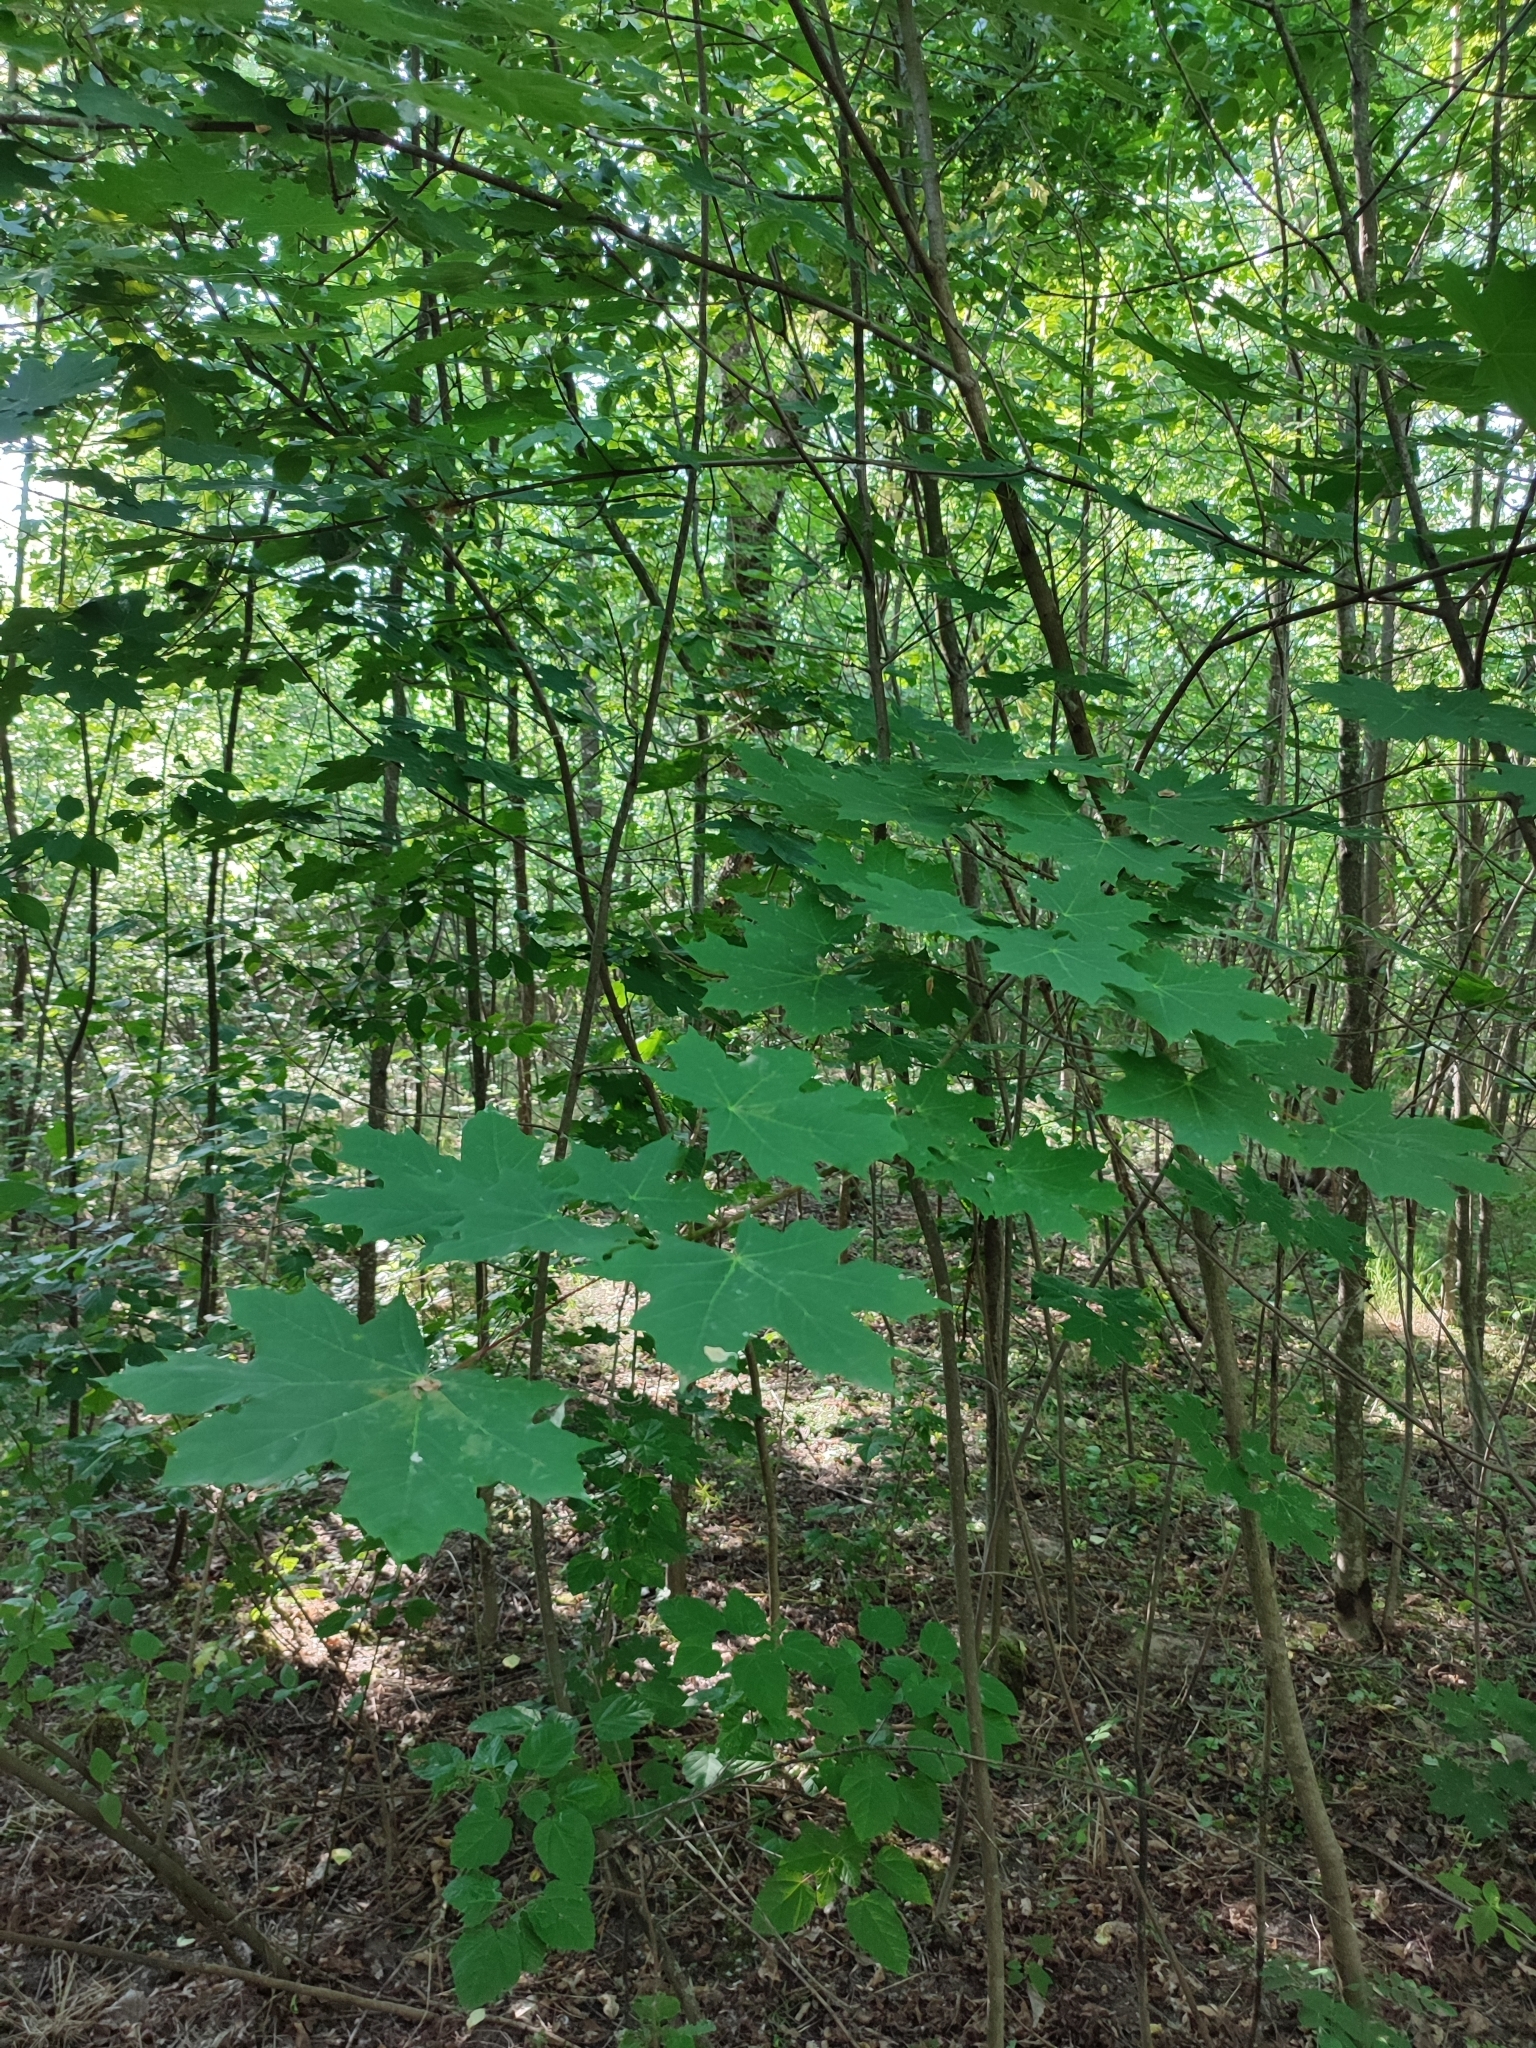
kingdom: Plantae
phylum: Tracheophyta
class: Magnoliopsida
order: Sapindales
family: Sapindaceae
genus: Acer
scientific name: Acer platanoides
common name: Norway maple
